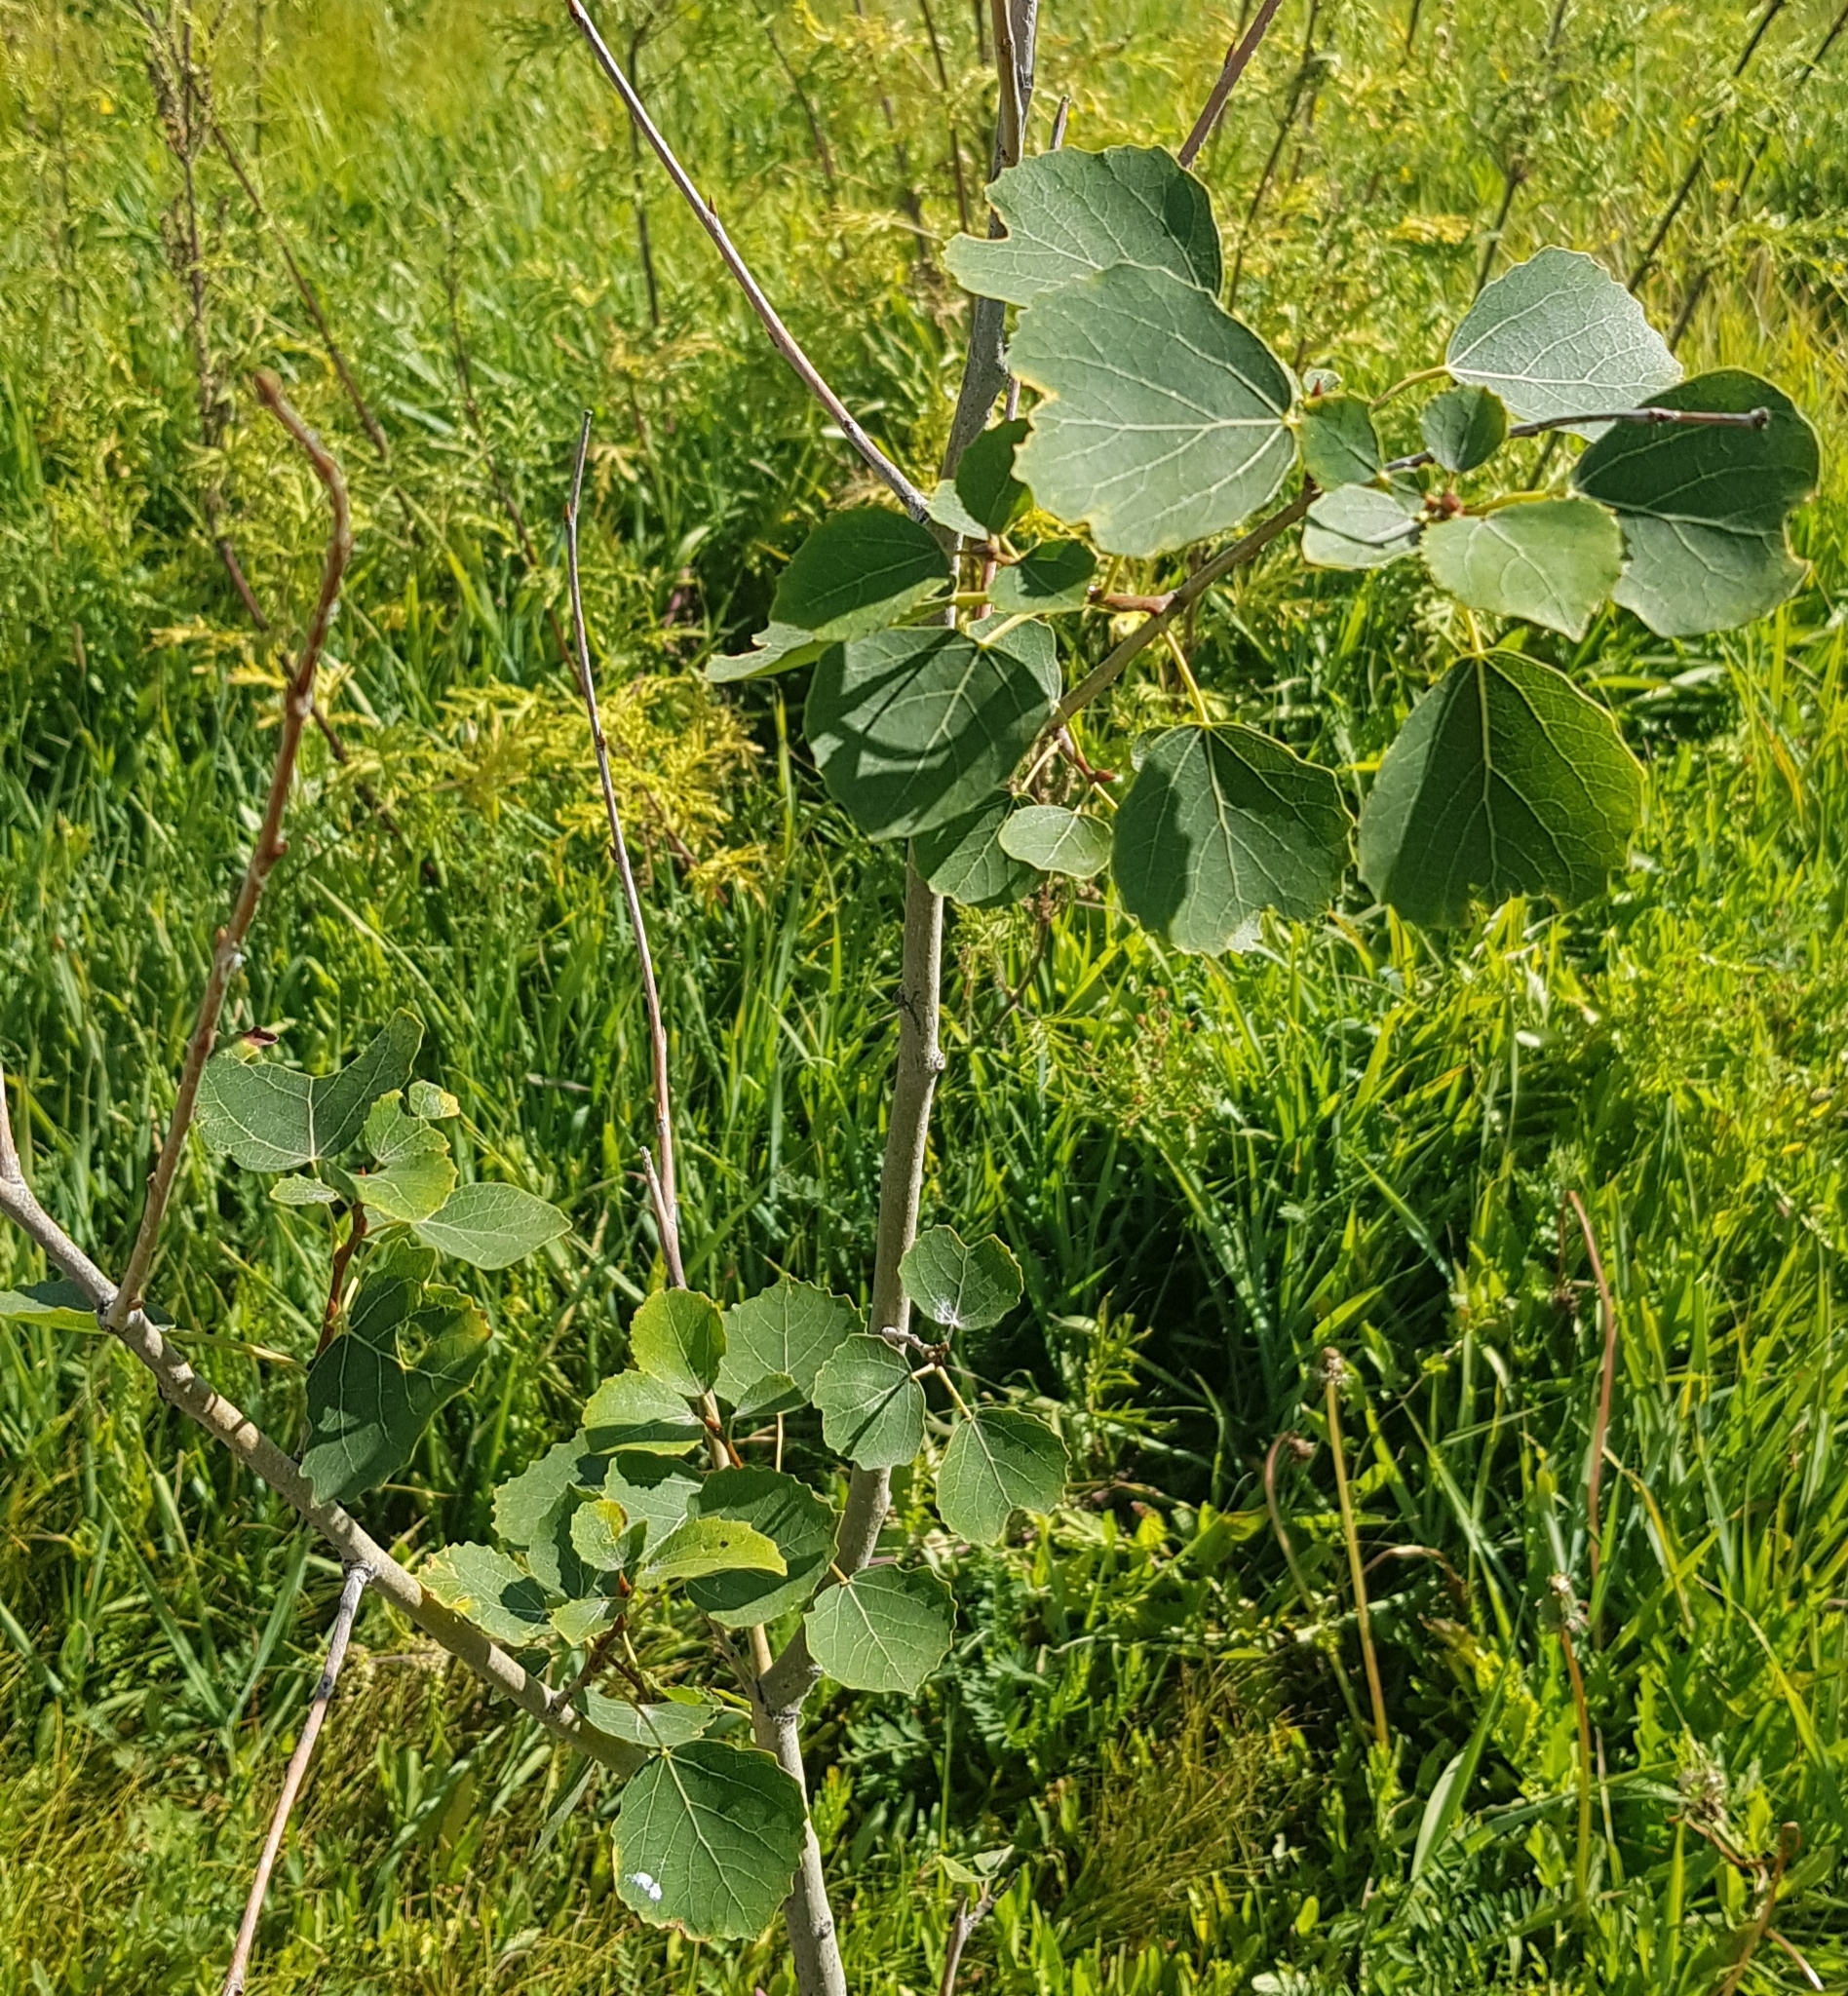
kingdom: Plantae
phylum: Tracheophyta
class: Magnoliopsida
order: Malpighiales
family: Salicaceae
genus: Populus
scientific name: Populus tremula
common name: European aspen
